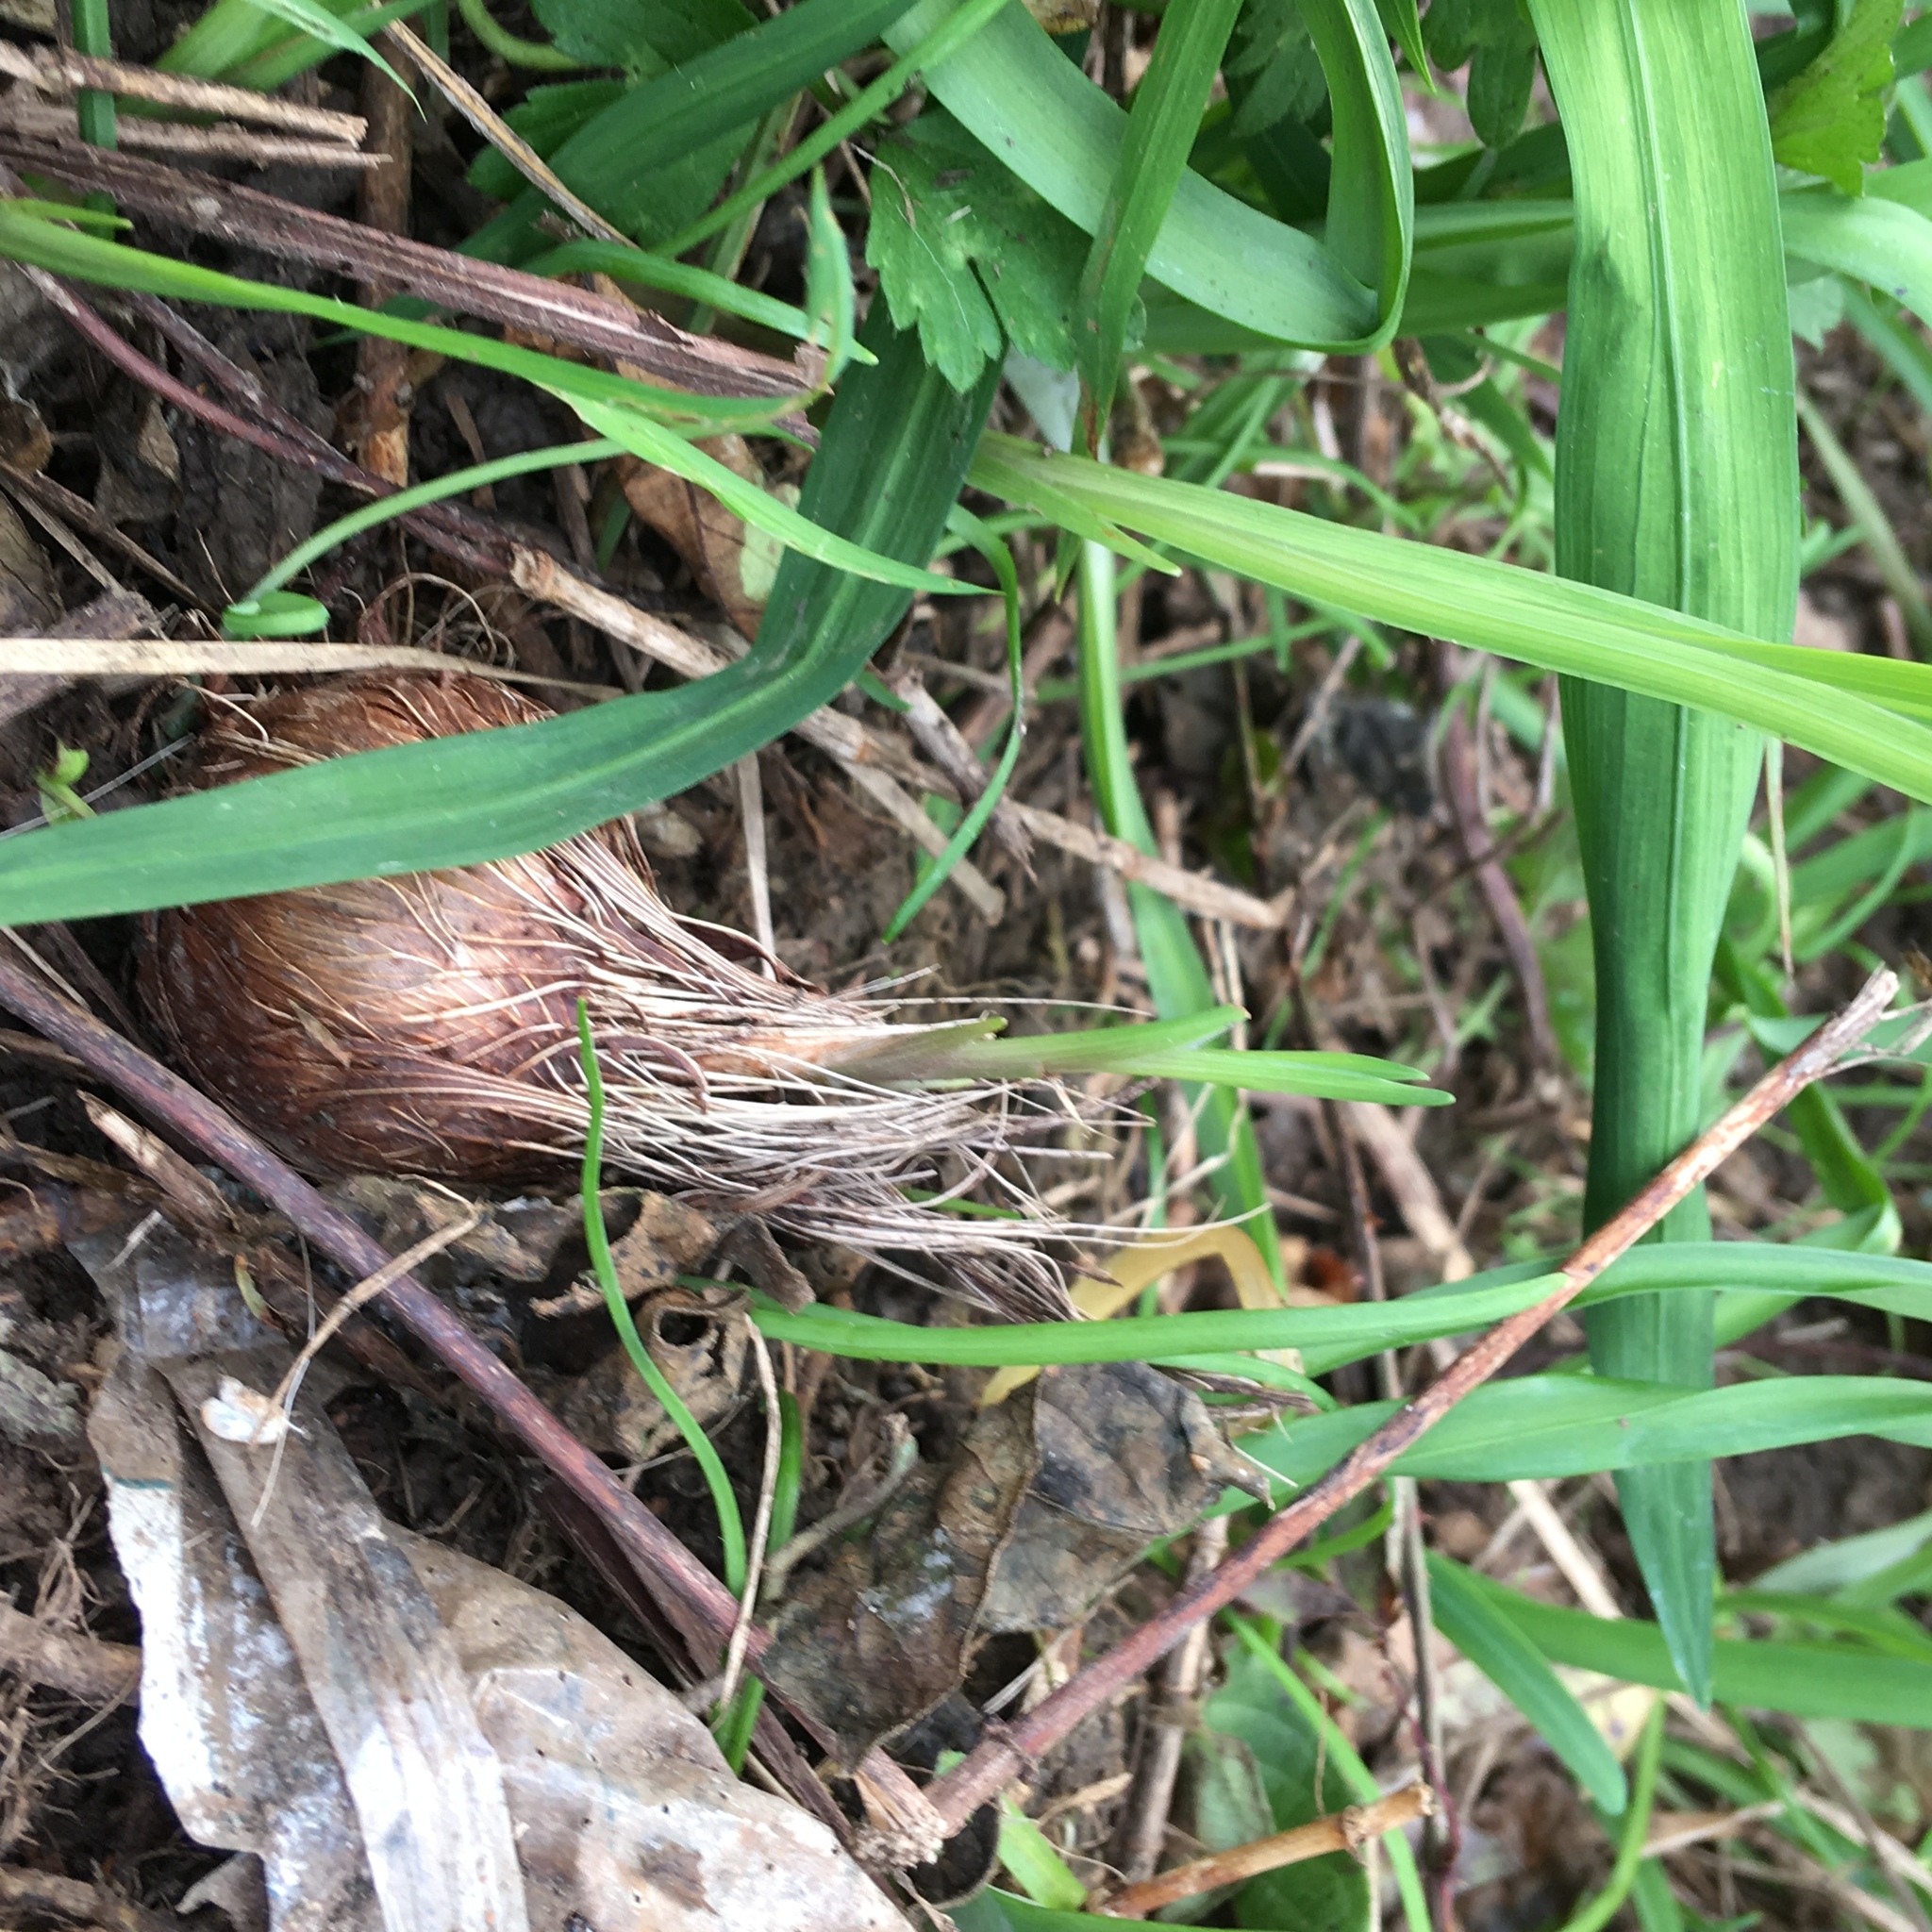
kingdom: Plantae
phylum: Tracheophyta
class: Liliopsida
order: Asparagales
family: Iridaceae
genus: Watsonia
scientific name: Watsonia meriana
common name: Bulbil bugle-lily
